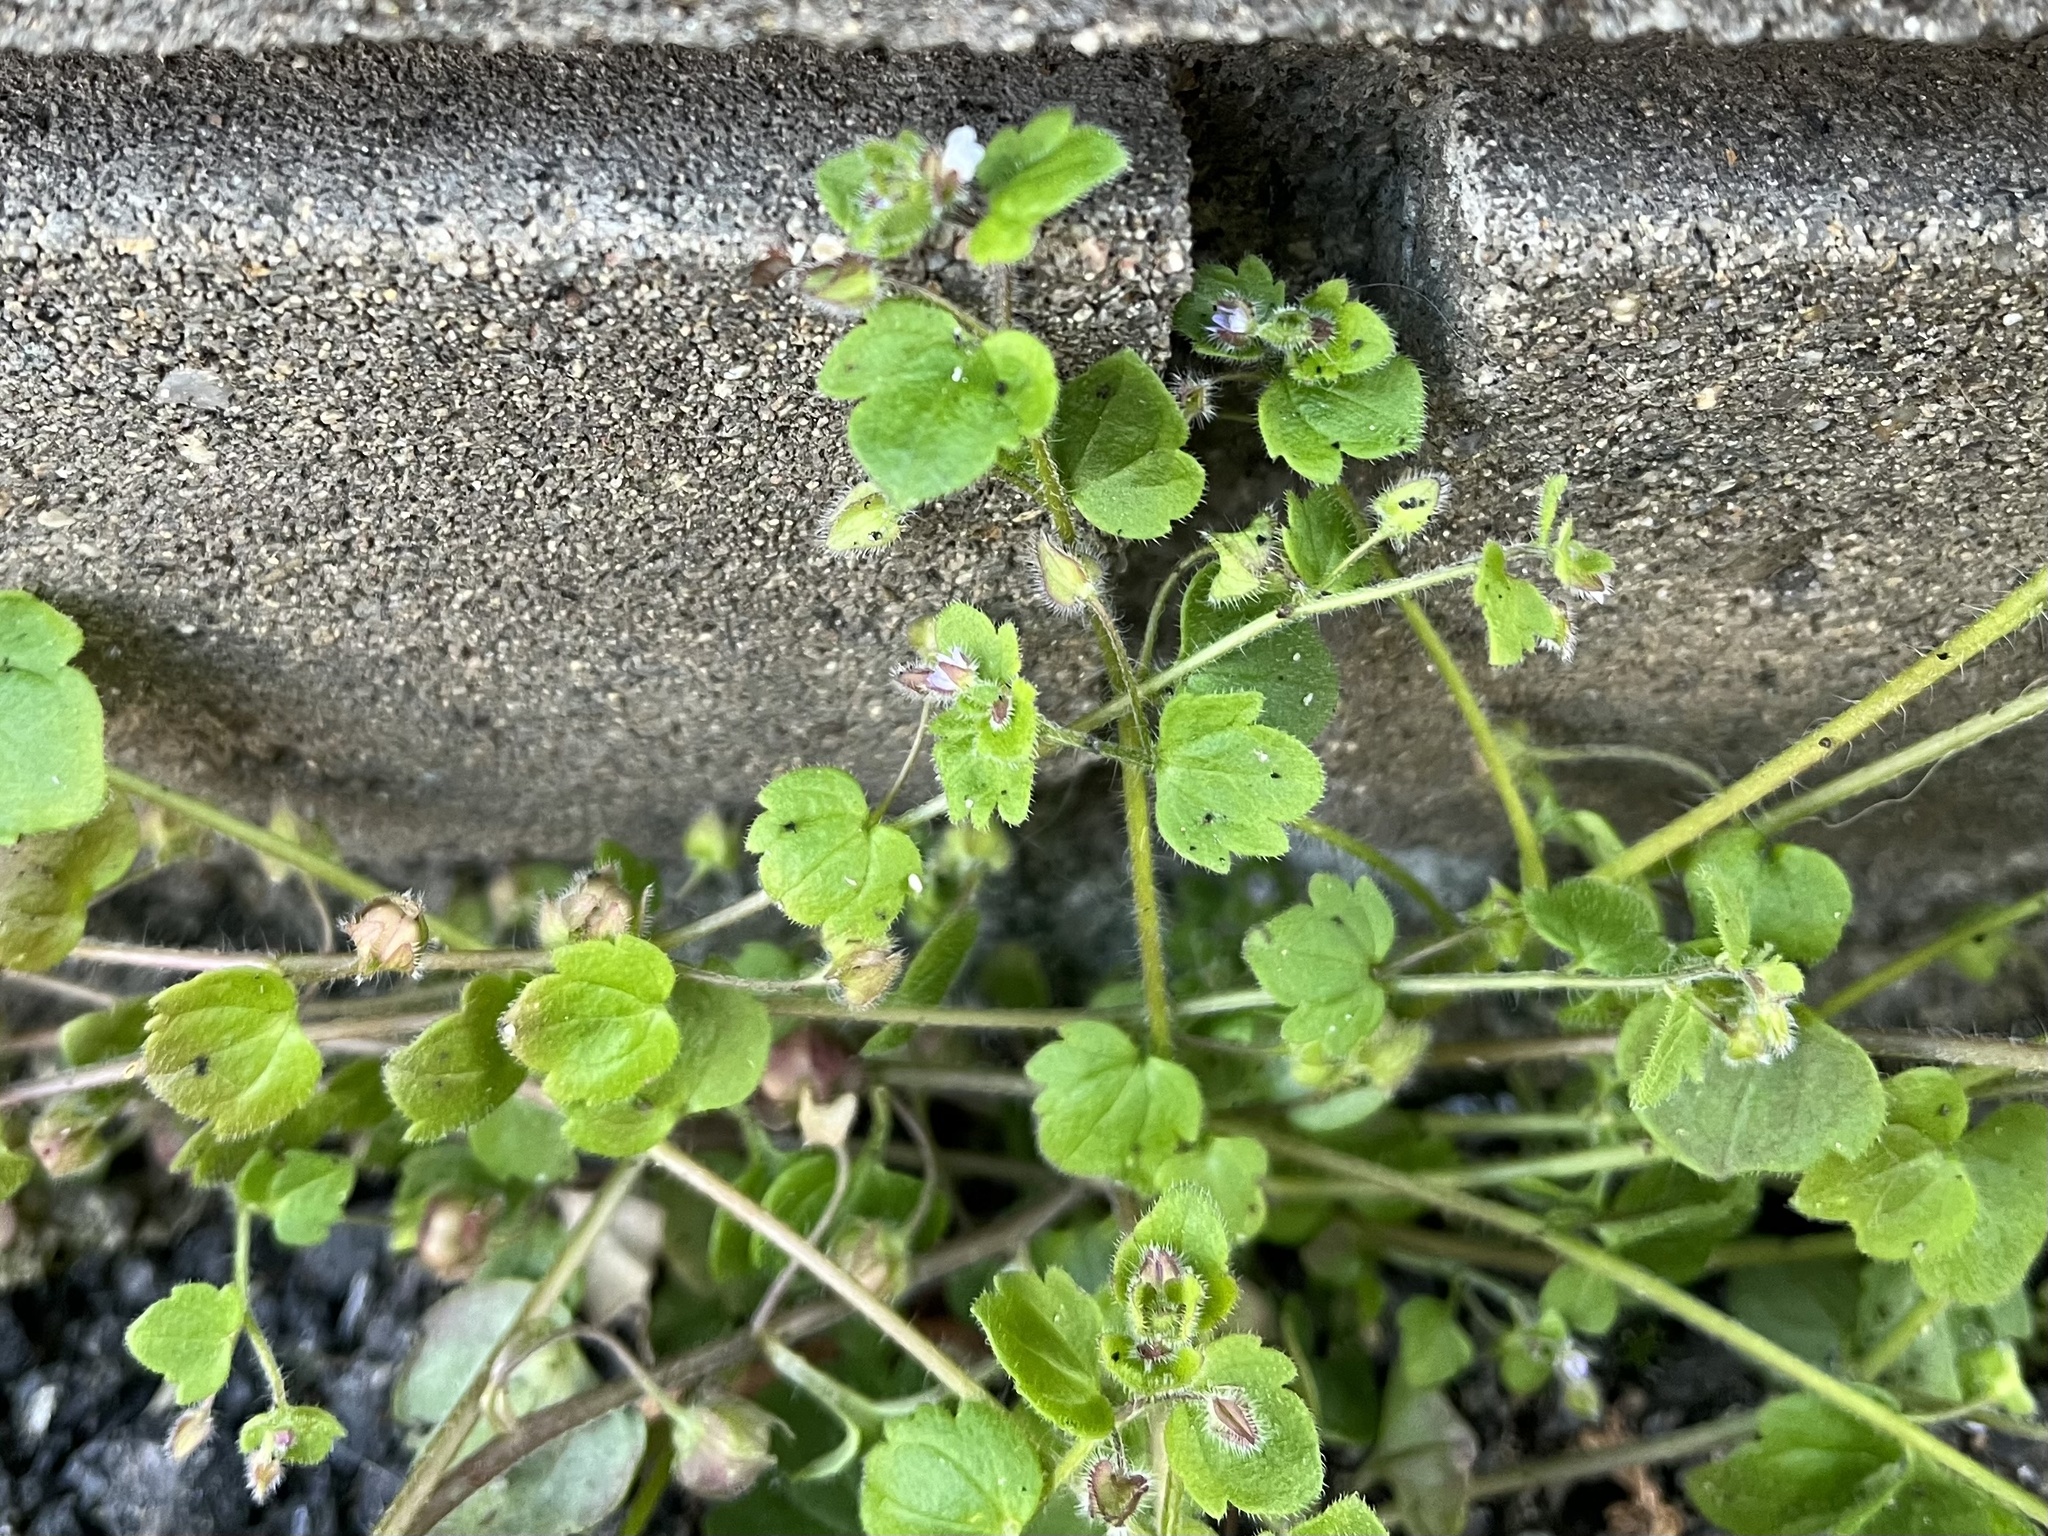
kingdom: Plantae
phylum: Tracheophyta
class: Magnoliopsida
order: Lamiales
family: Plantaginaceae
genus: Veronica
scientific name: Veronica sublobata
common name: False ivy-leaved speedwell
